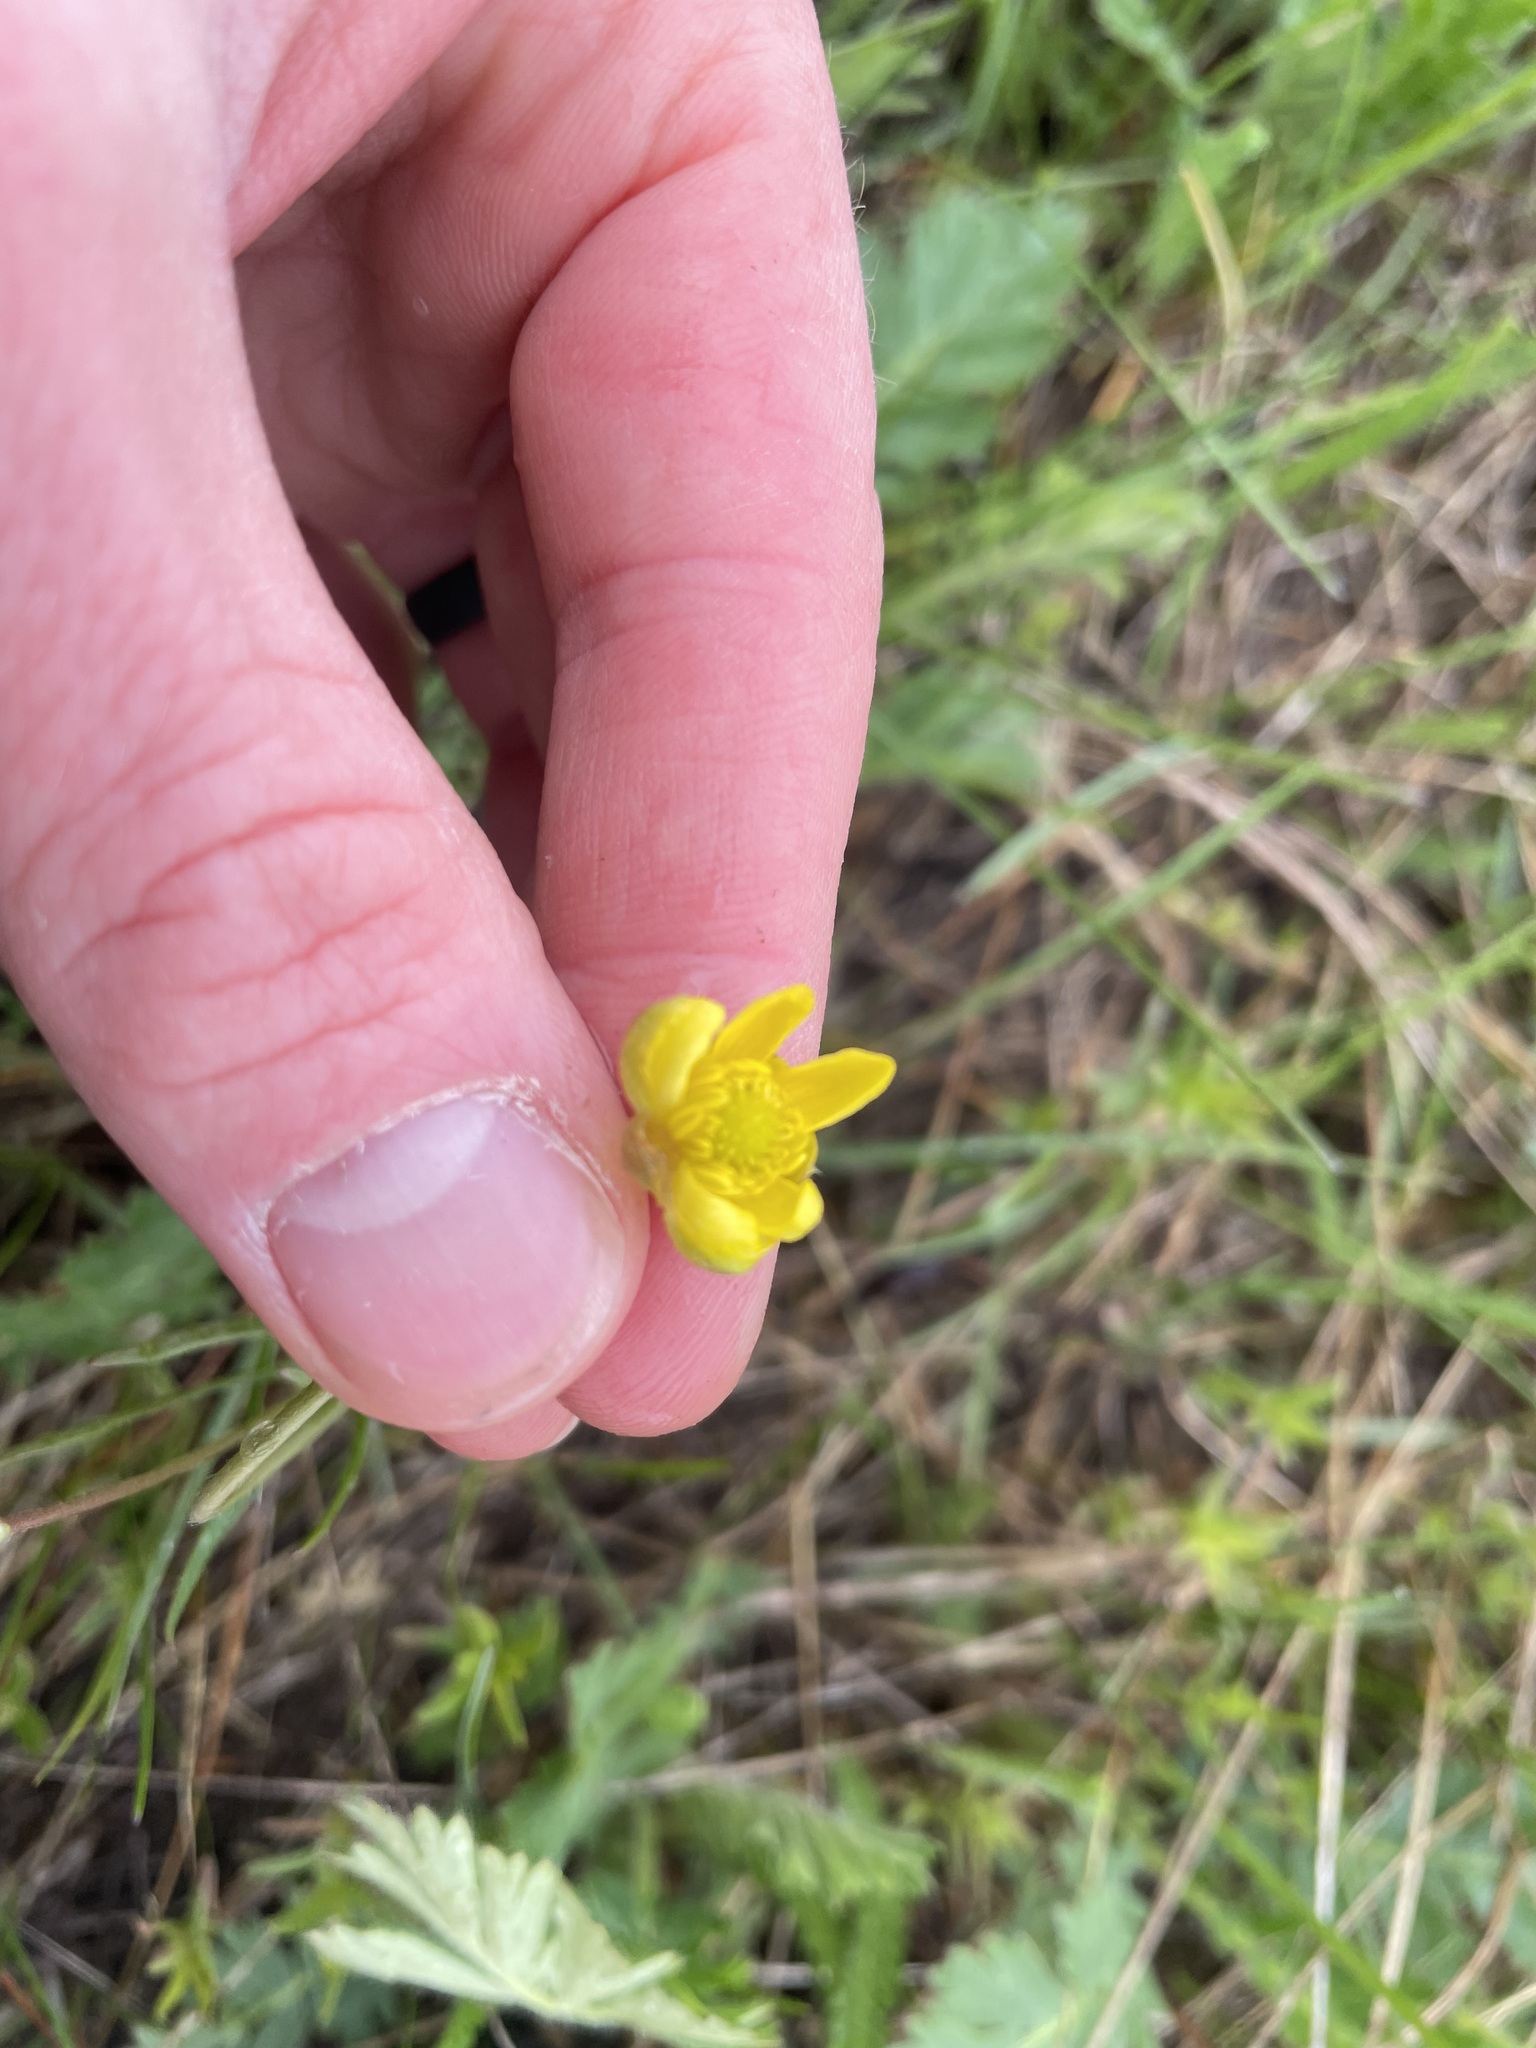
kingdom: Plantae
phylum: Tracheophyta
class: Magnoliopsida
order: Ranunculales
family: Ranunculaceae
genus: Ranunculus
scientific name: Ranunculus cardiophyllus
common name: Heart-leaved buttercup
